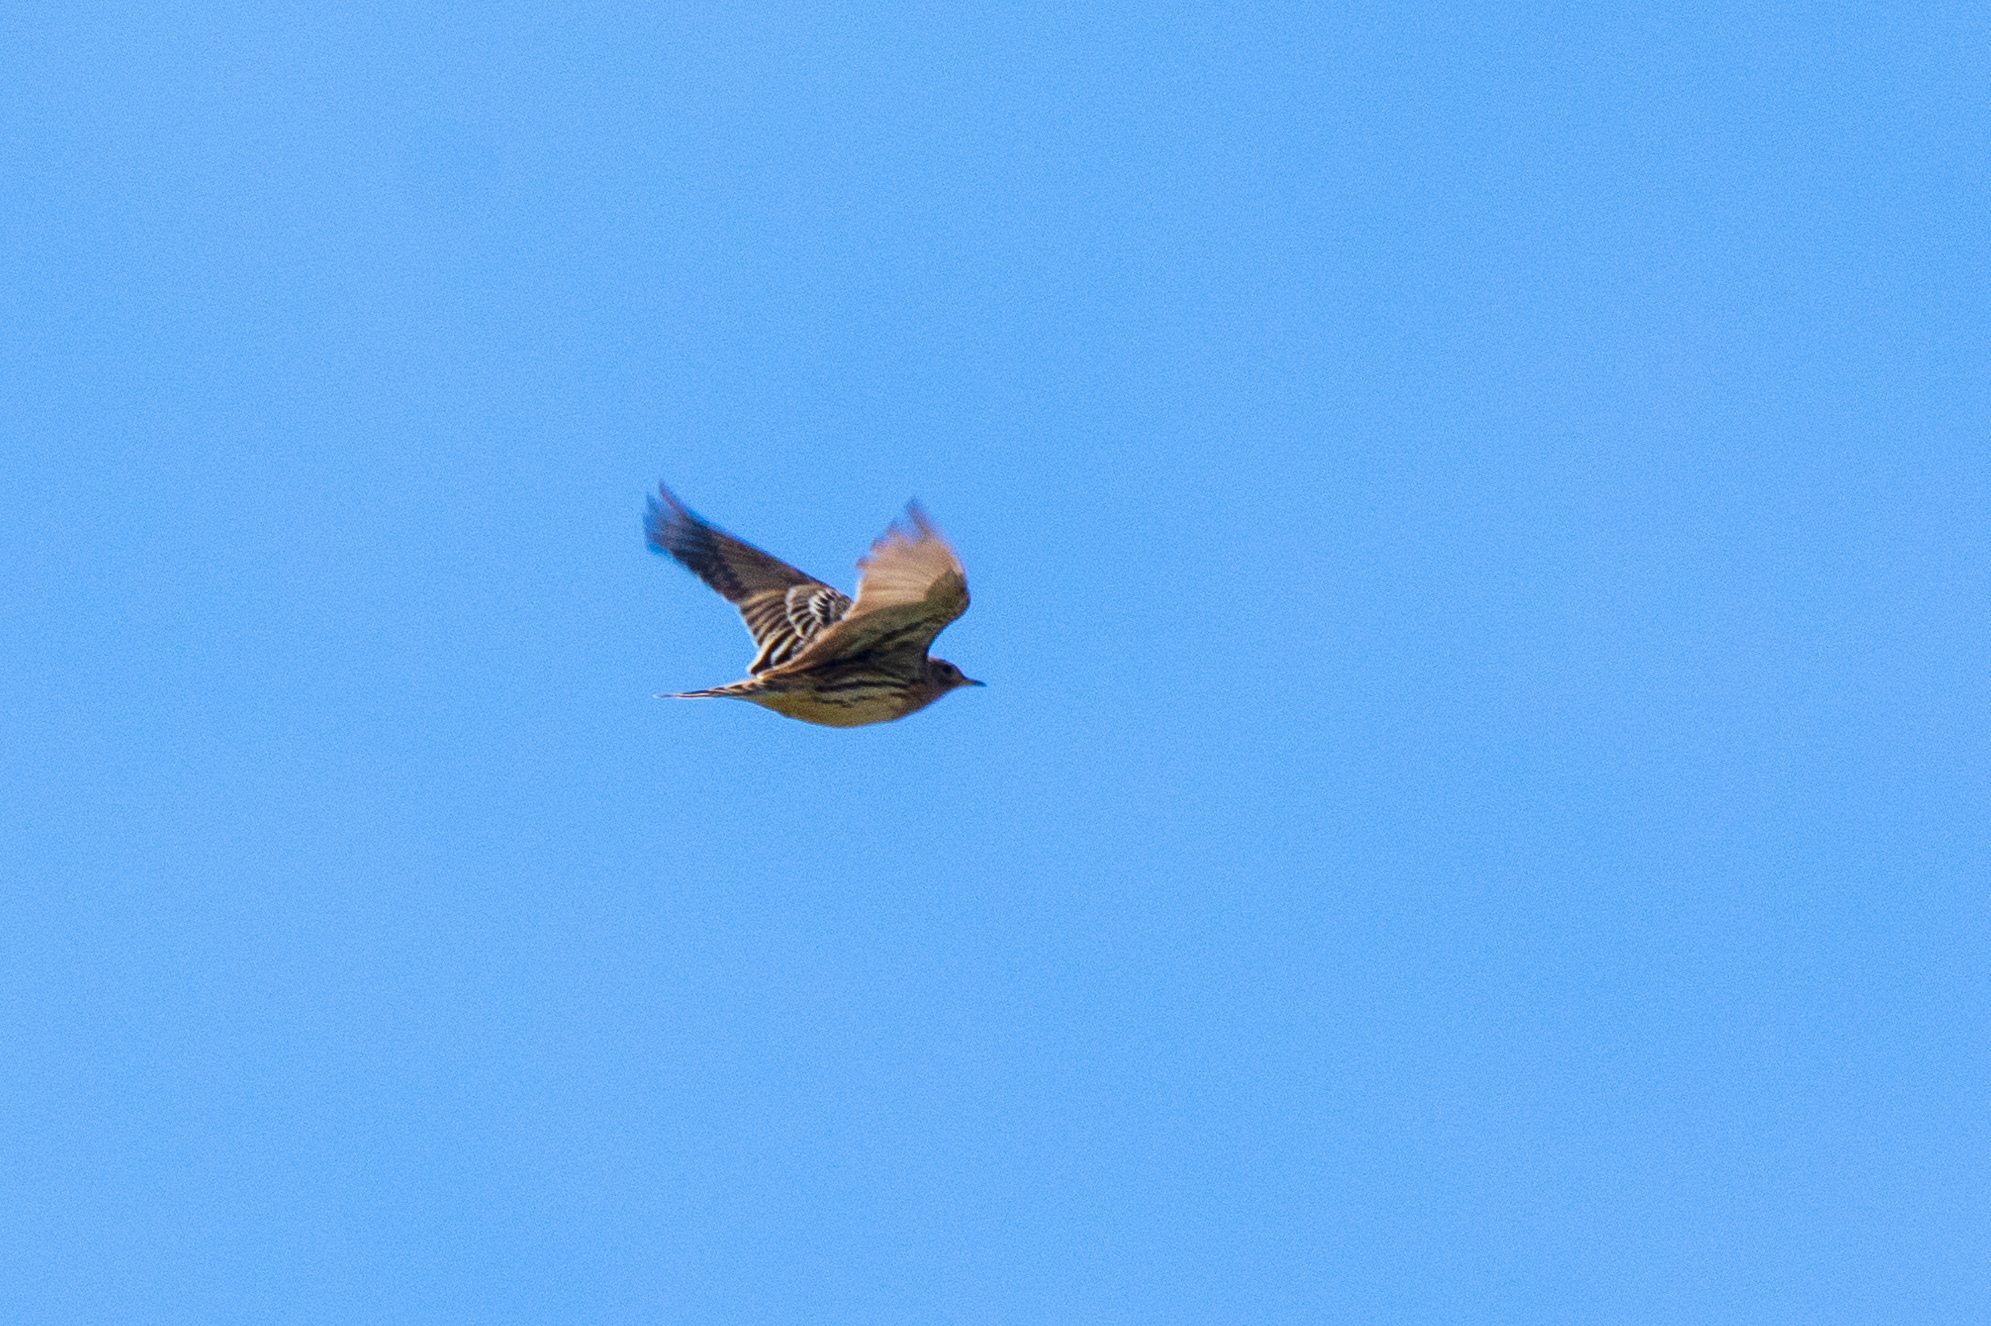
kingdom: Animalia
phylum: Chordata
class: Aves
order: Passeriformes
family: Motacillidae
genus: Anthus
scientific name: Anthus cervinus
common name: Red-throated pipit
